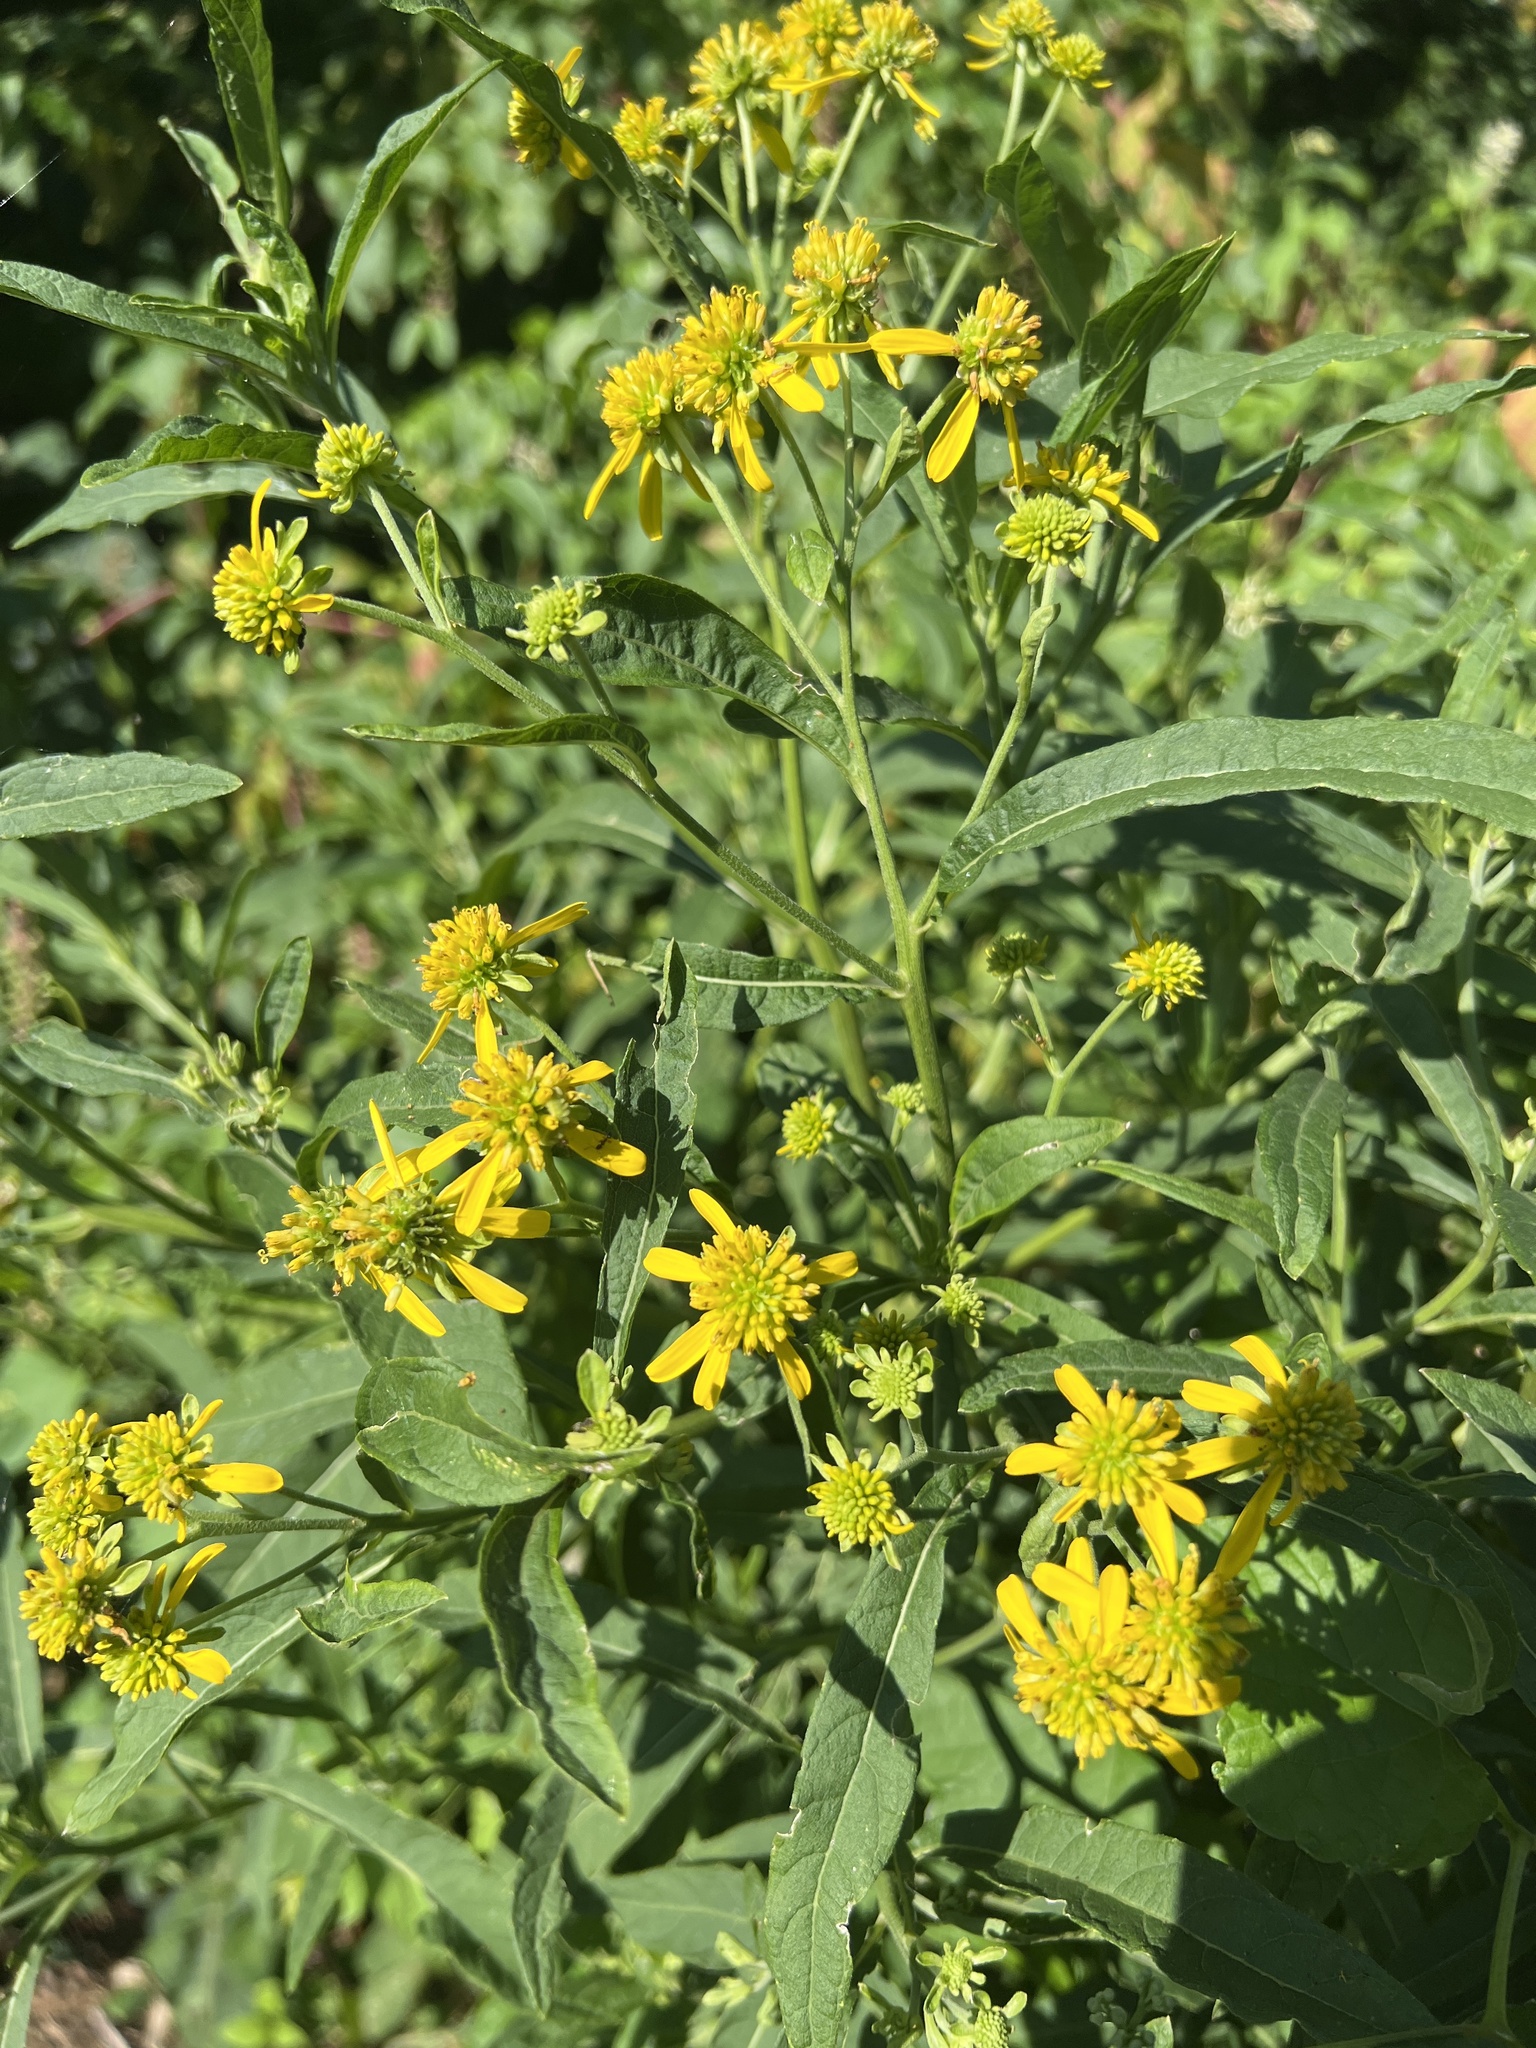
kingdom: Plantae
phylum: Tracheophyta
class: Magnoliopsida
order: Asterales
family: Asteraceae
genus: Verbesina
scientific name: Verbesina alternifolia
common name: Wingstem
